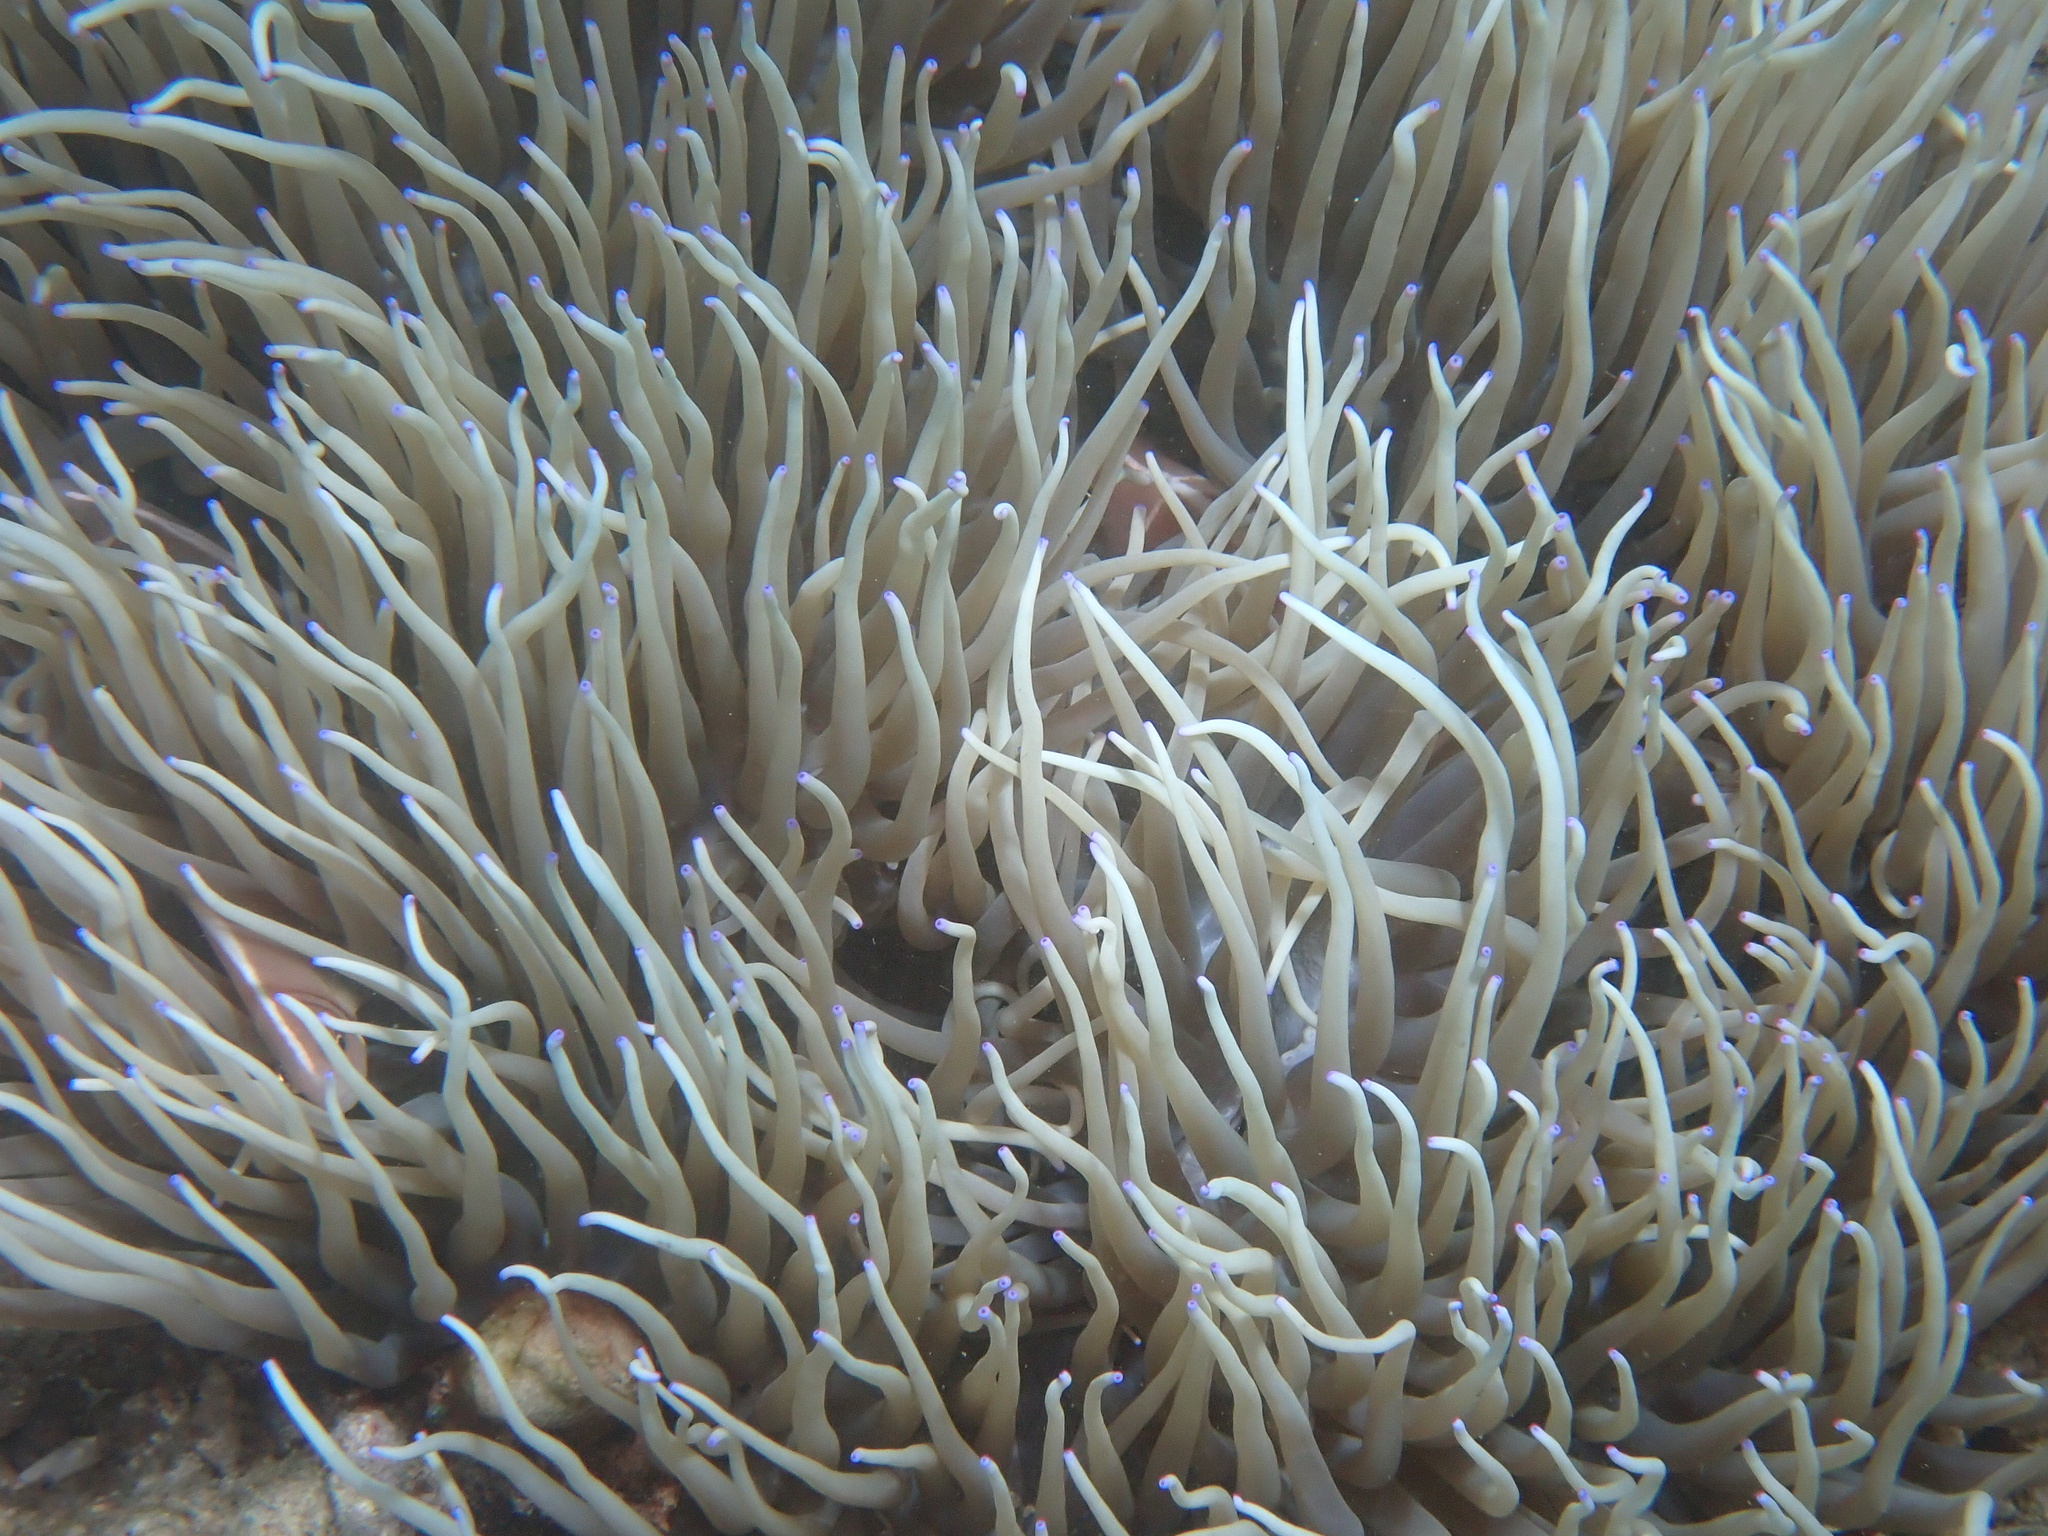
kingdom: Animalia
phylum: Cnidaria
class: Anthozoa
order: Actiniaria
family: Stichodactylidae
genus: Radianthus
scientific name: Radianthus crispa
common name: Leather anemone
